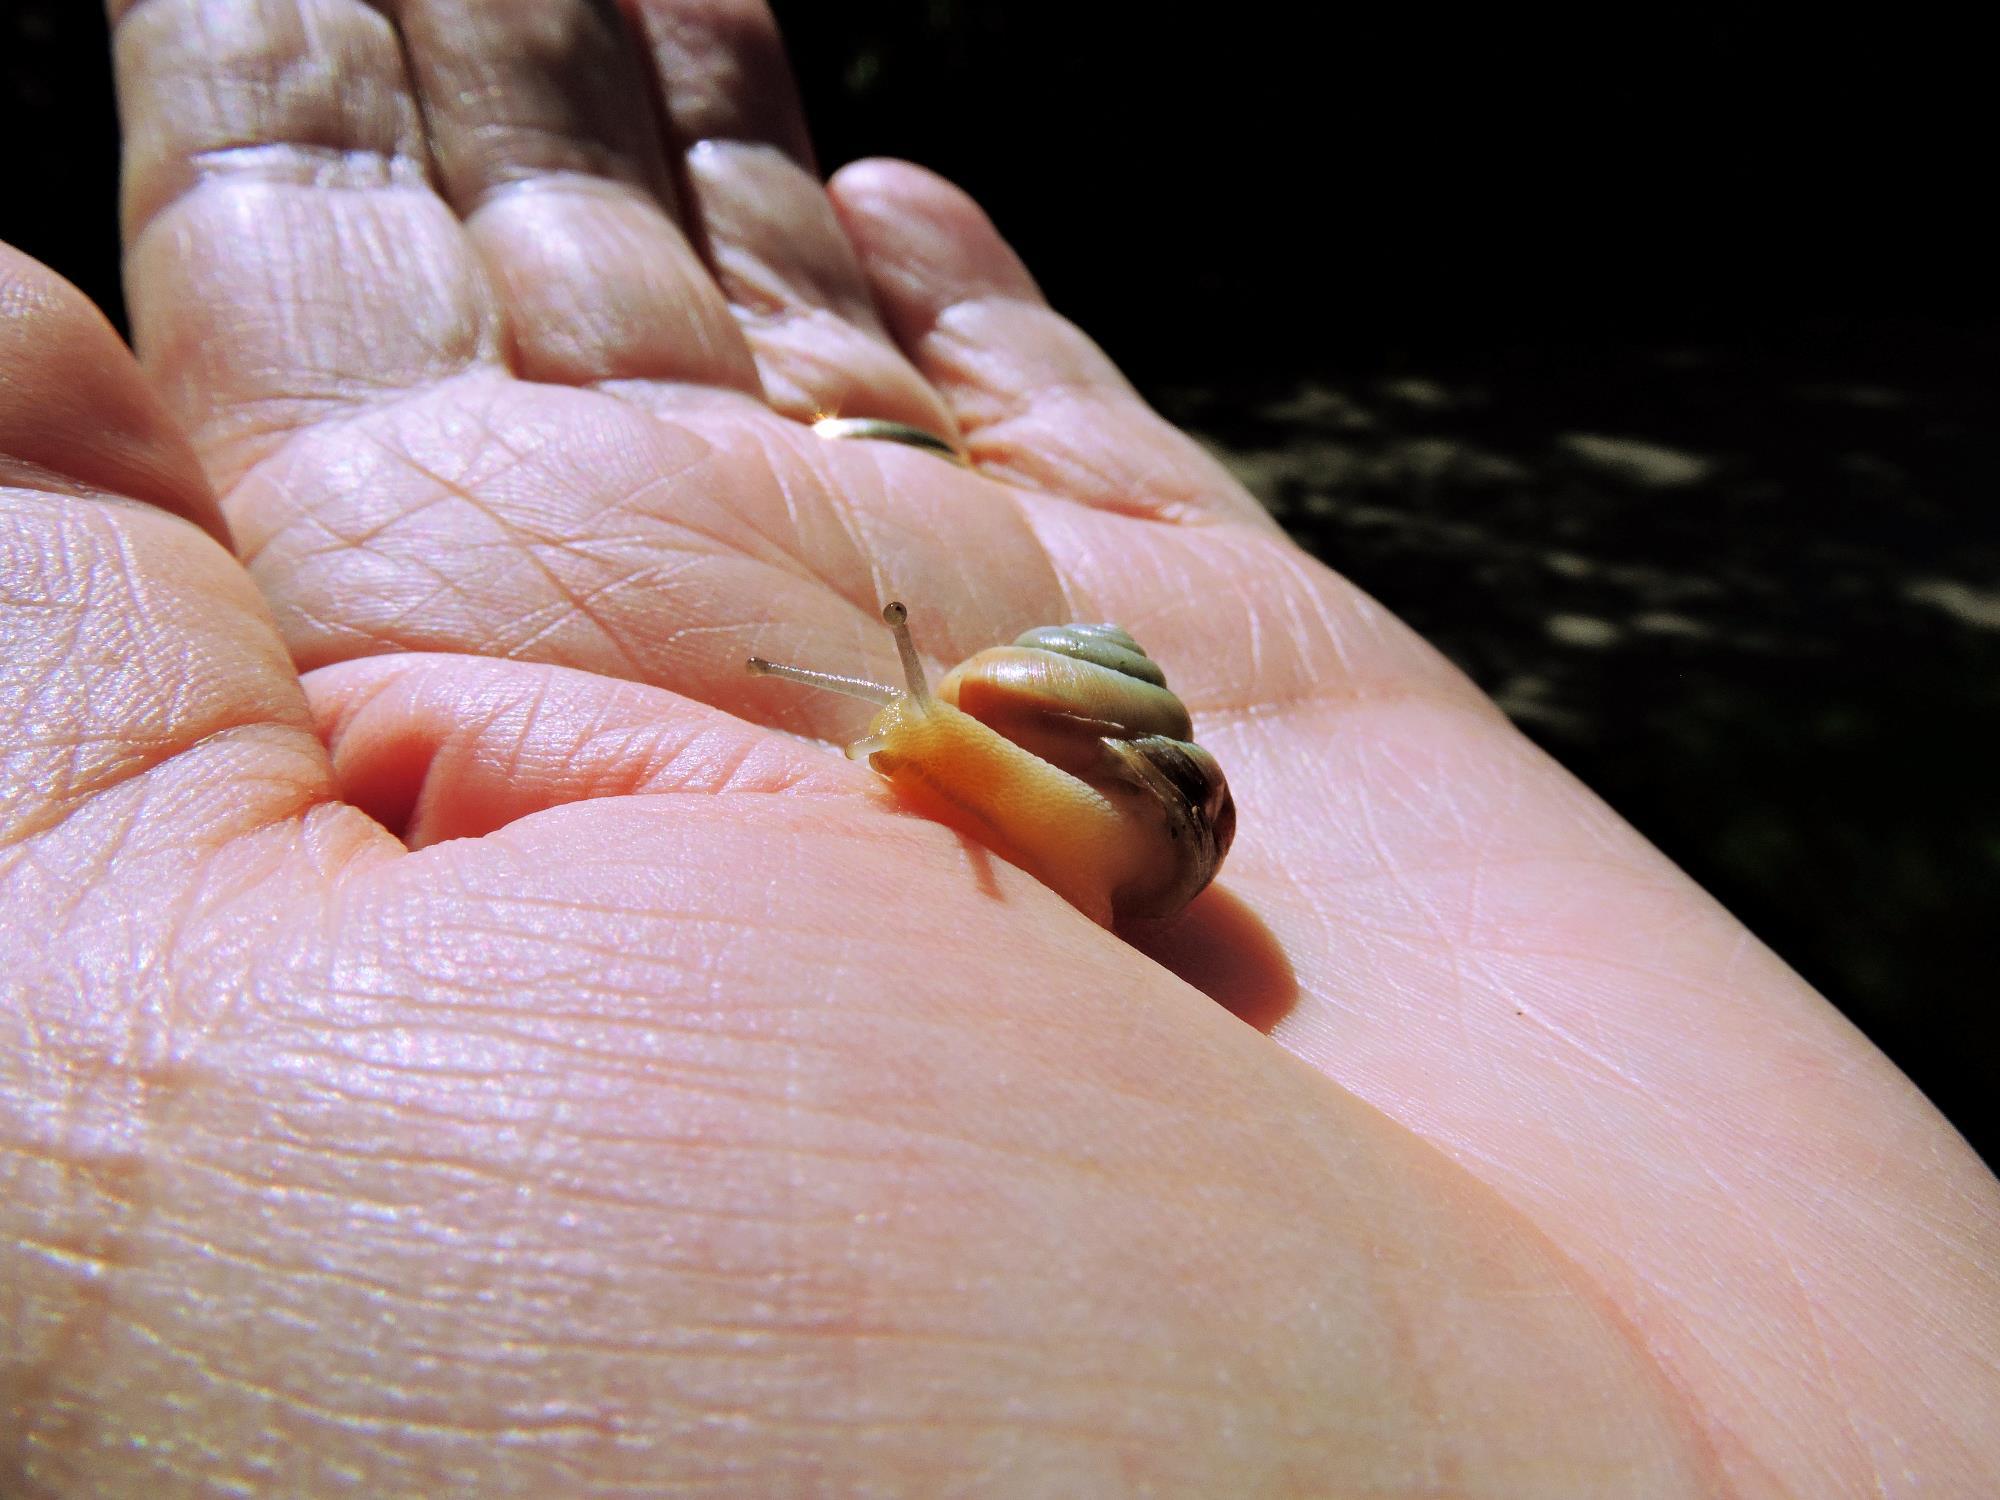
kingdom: Animalia
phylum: Mollusca
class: Gastropoda
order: Stylommatophora
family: Hygromiidae
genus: Monacha
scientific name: Monacha cantiana
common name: Kentish snail
